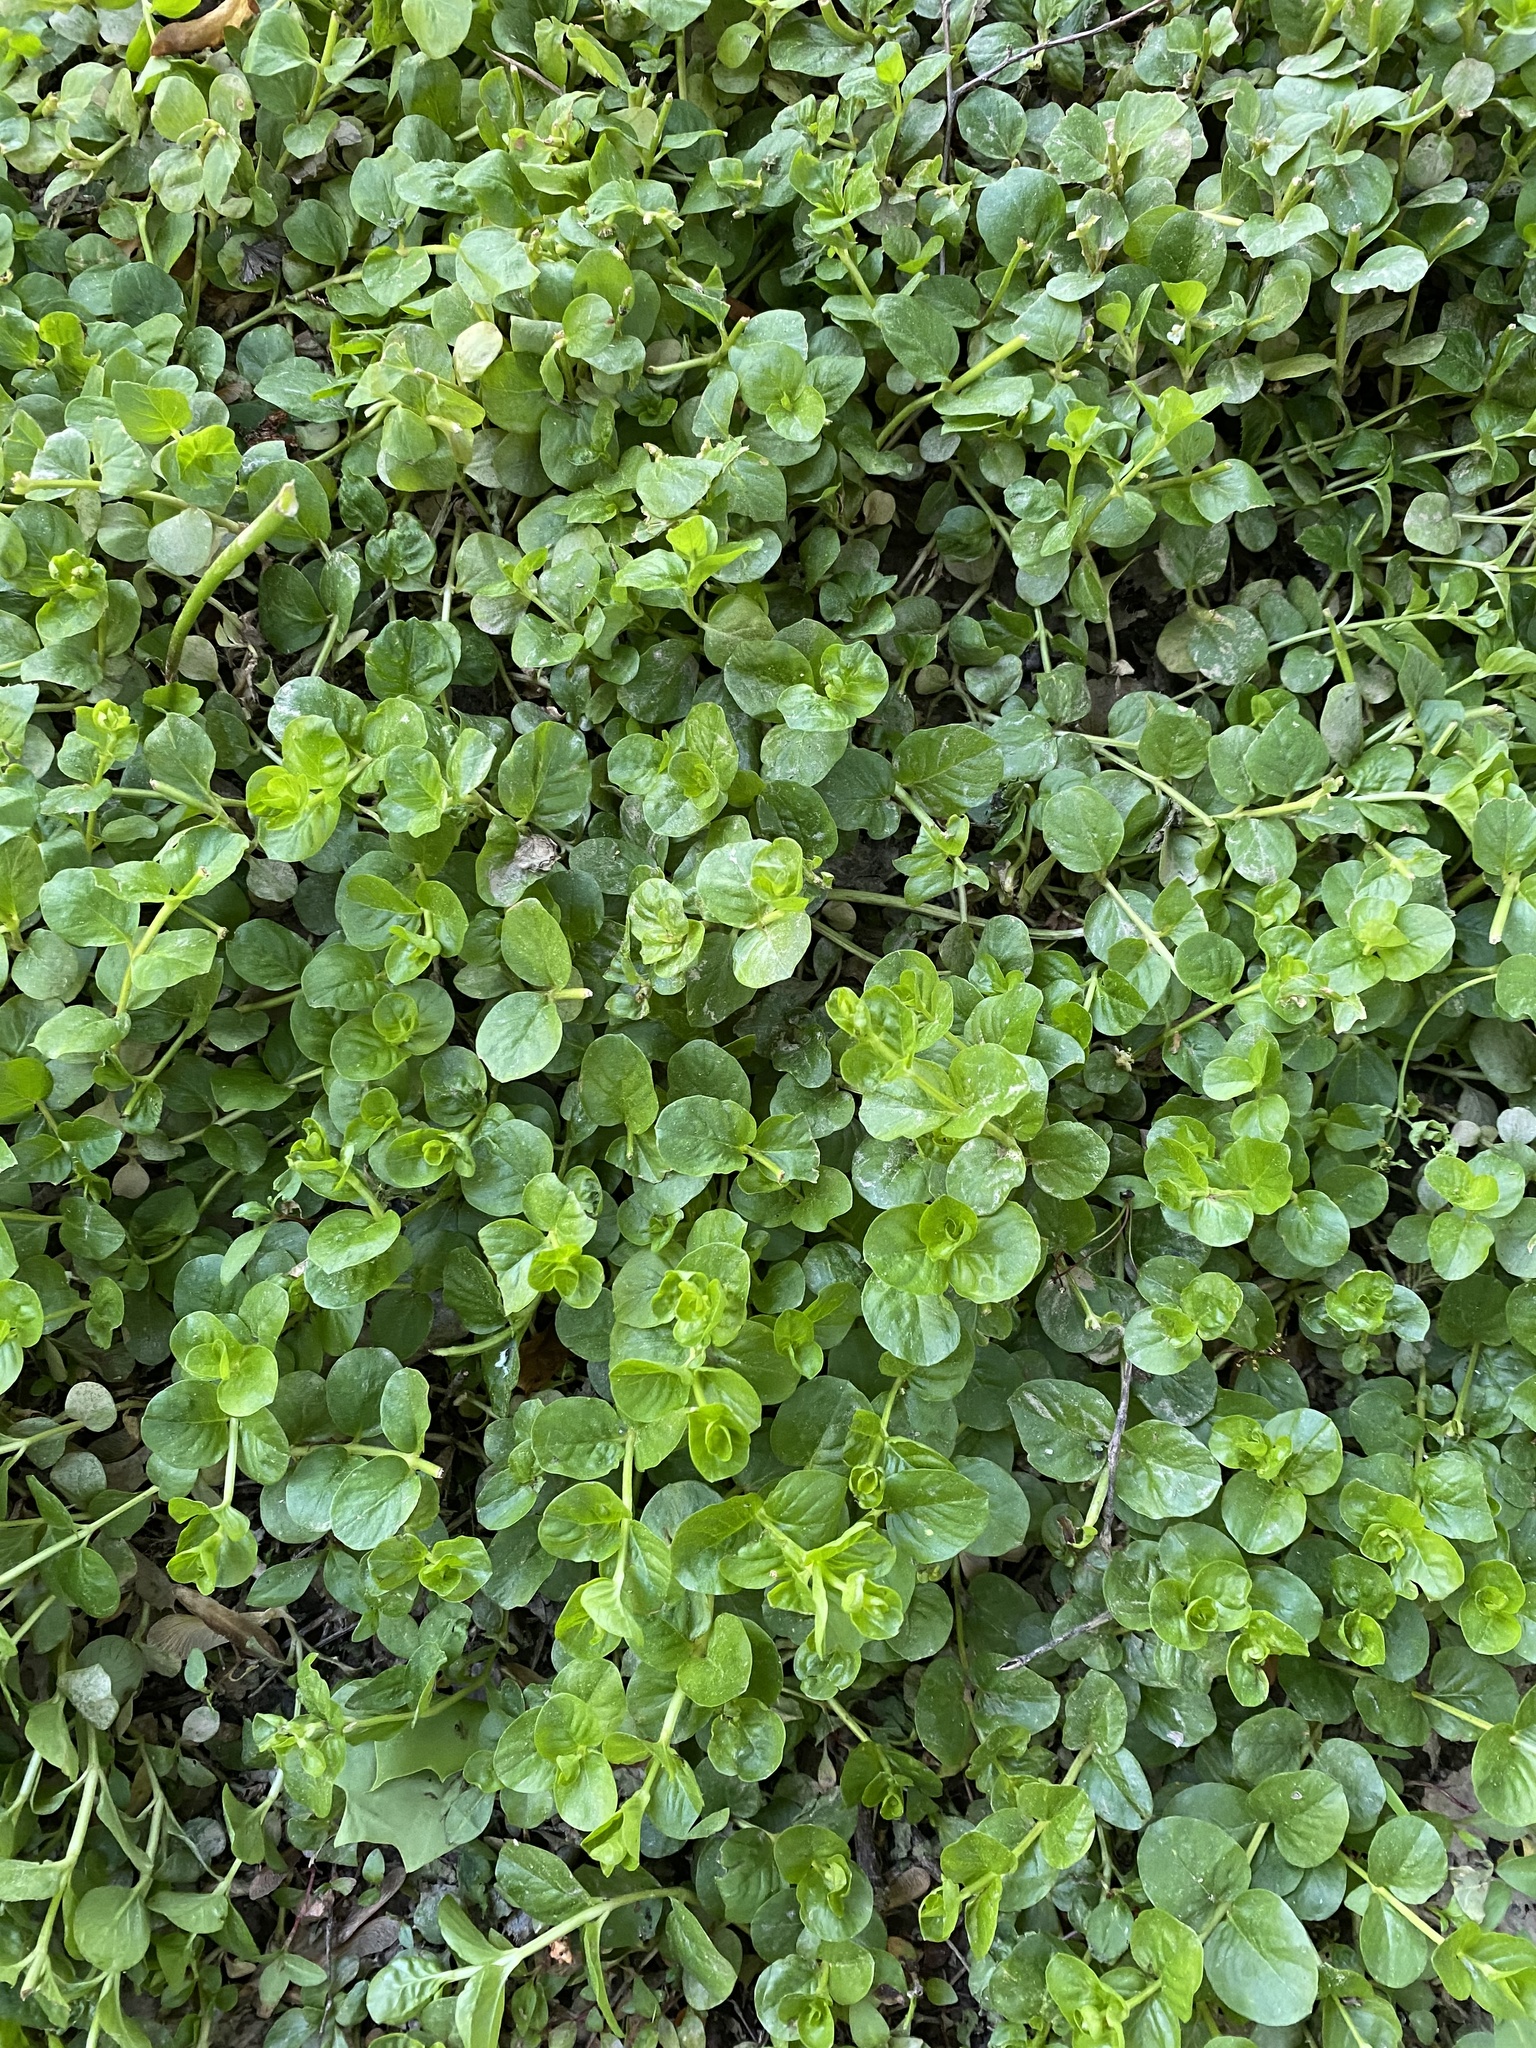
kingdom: Plantae
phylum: Tracheophyta
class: Magnoliopsida
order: Ericales
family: Primulaceae
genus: Lysimachia
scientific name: Lysimachia nummularia
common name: Moneywort
